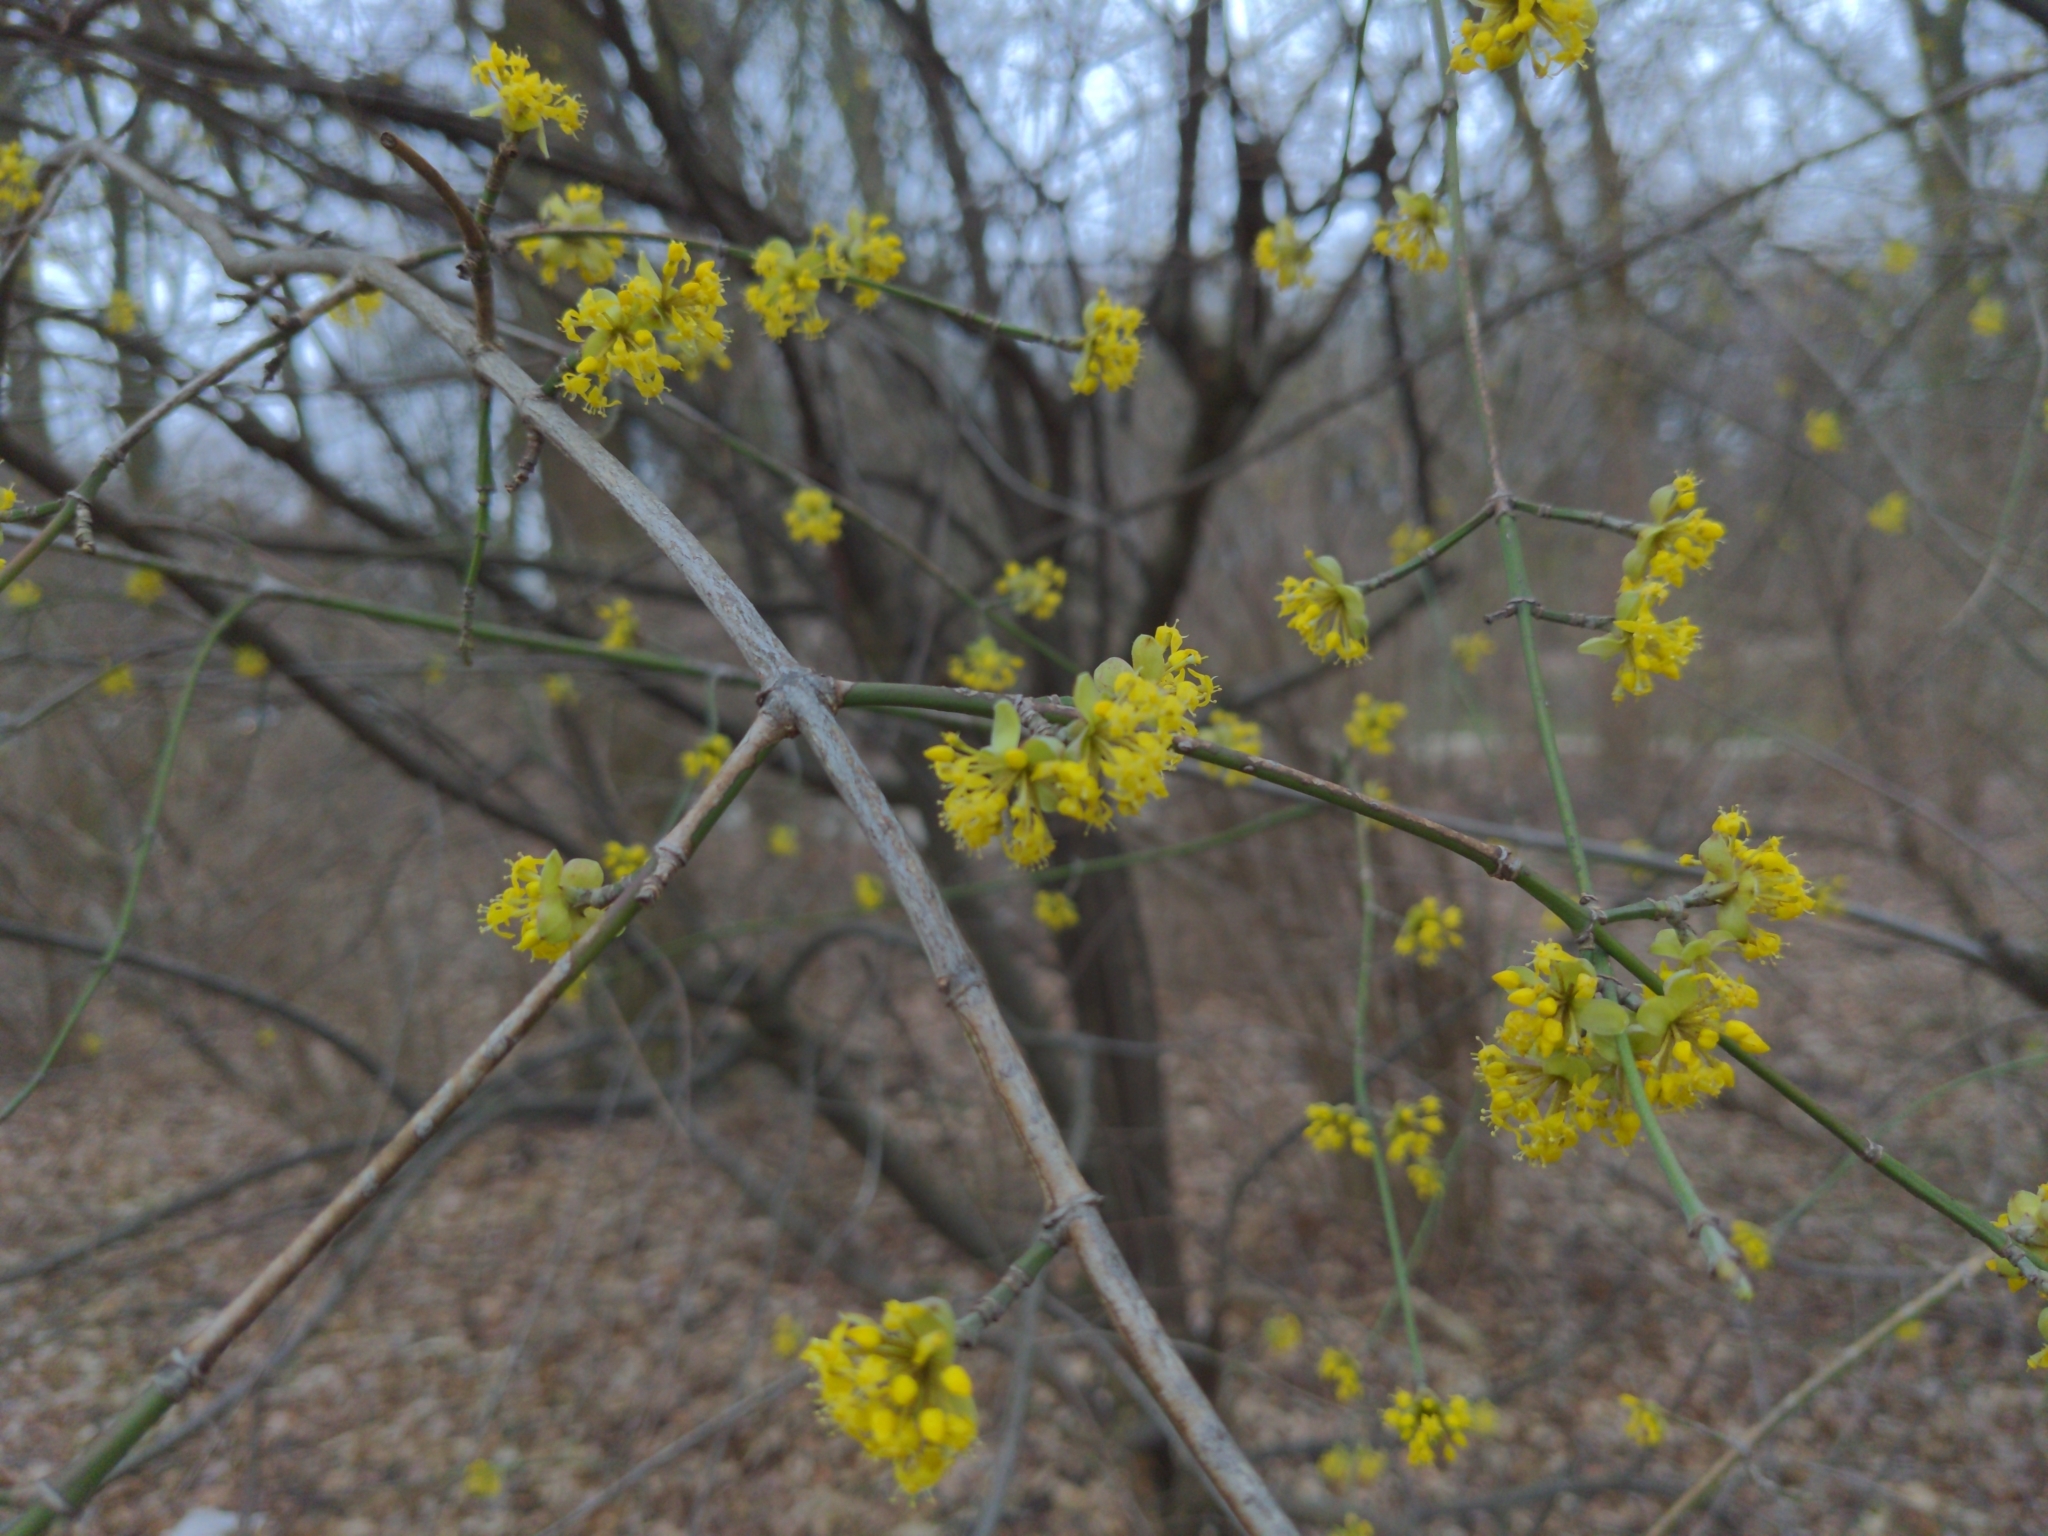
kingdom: Plantae
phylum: Tracheophyta
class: Magnoliopsida
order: Cornales
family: Cornaceae
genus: Cornus
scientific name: Cornus mas
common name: Cornelian-cherry
